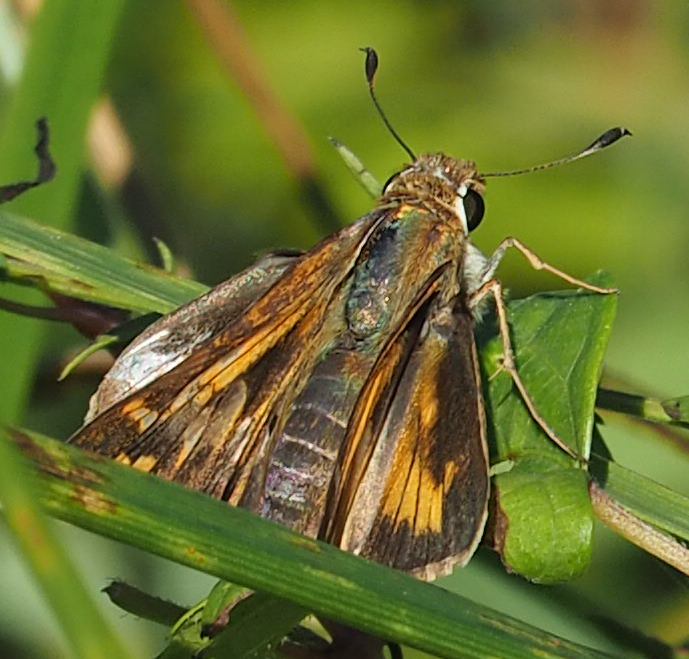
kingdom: Animalia
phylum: Arthropoda
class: Insecta
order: Lepidoptera
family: Hesperiidae
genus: Atalopedes
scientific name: Atalopedes
